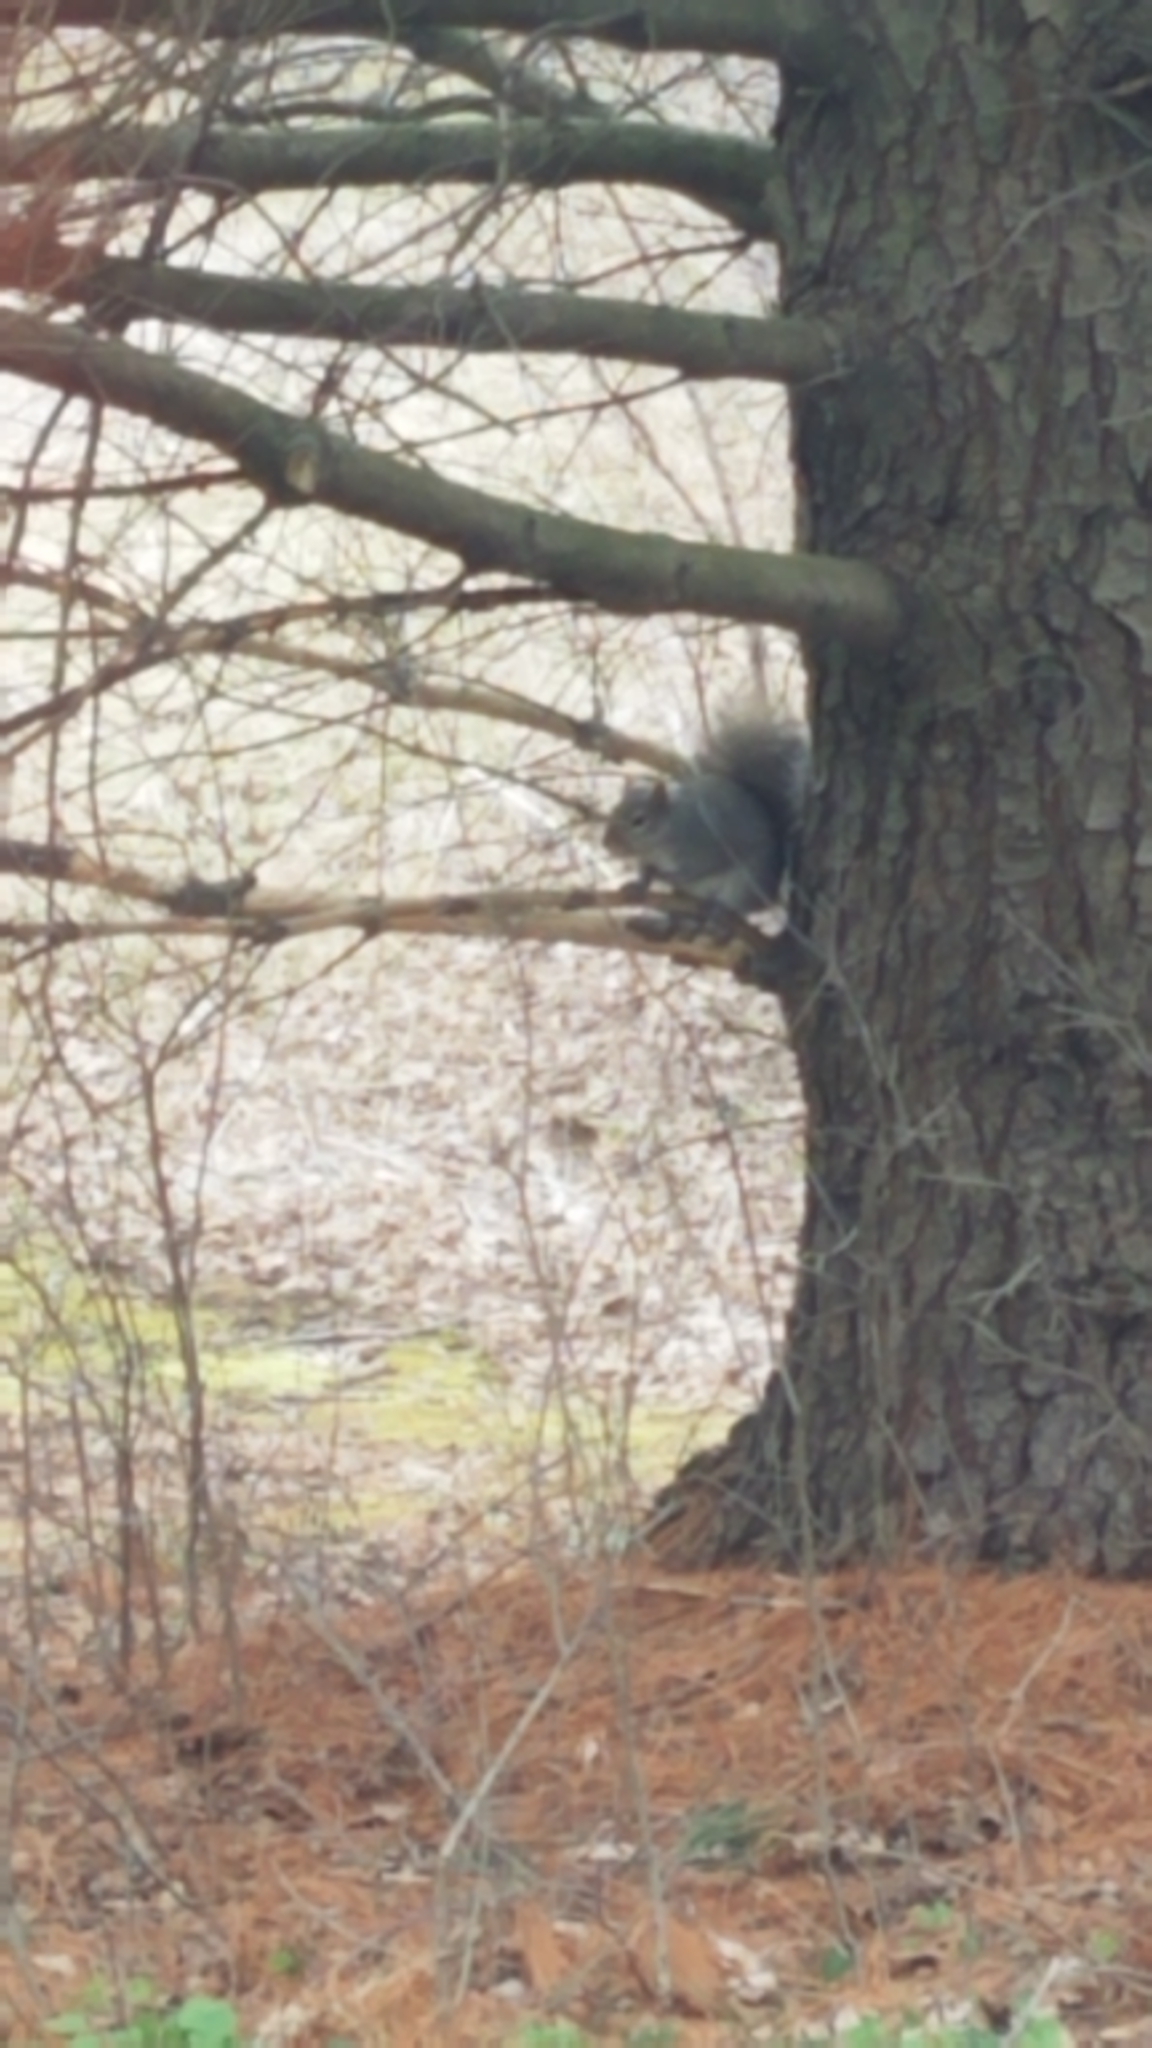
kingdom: Animalia
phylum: Chordata
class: Mammalia
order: Rodentia
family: Sciuridae
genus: Sciurus
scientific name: Sciurus carolinensis
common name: Eastern gray squirrel
